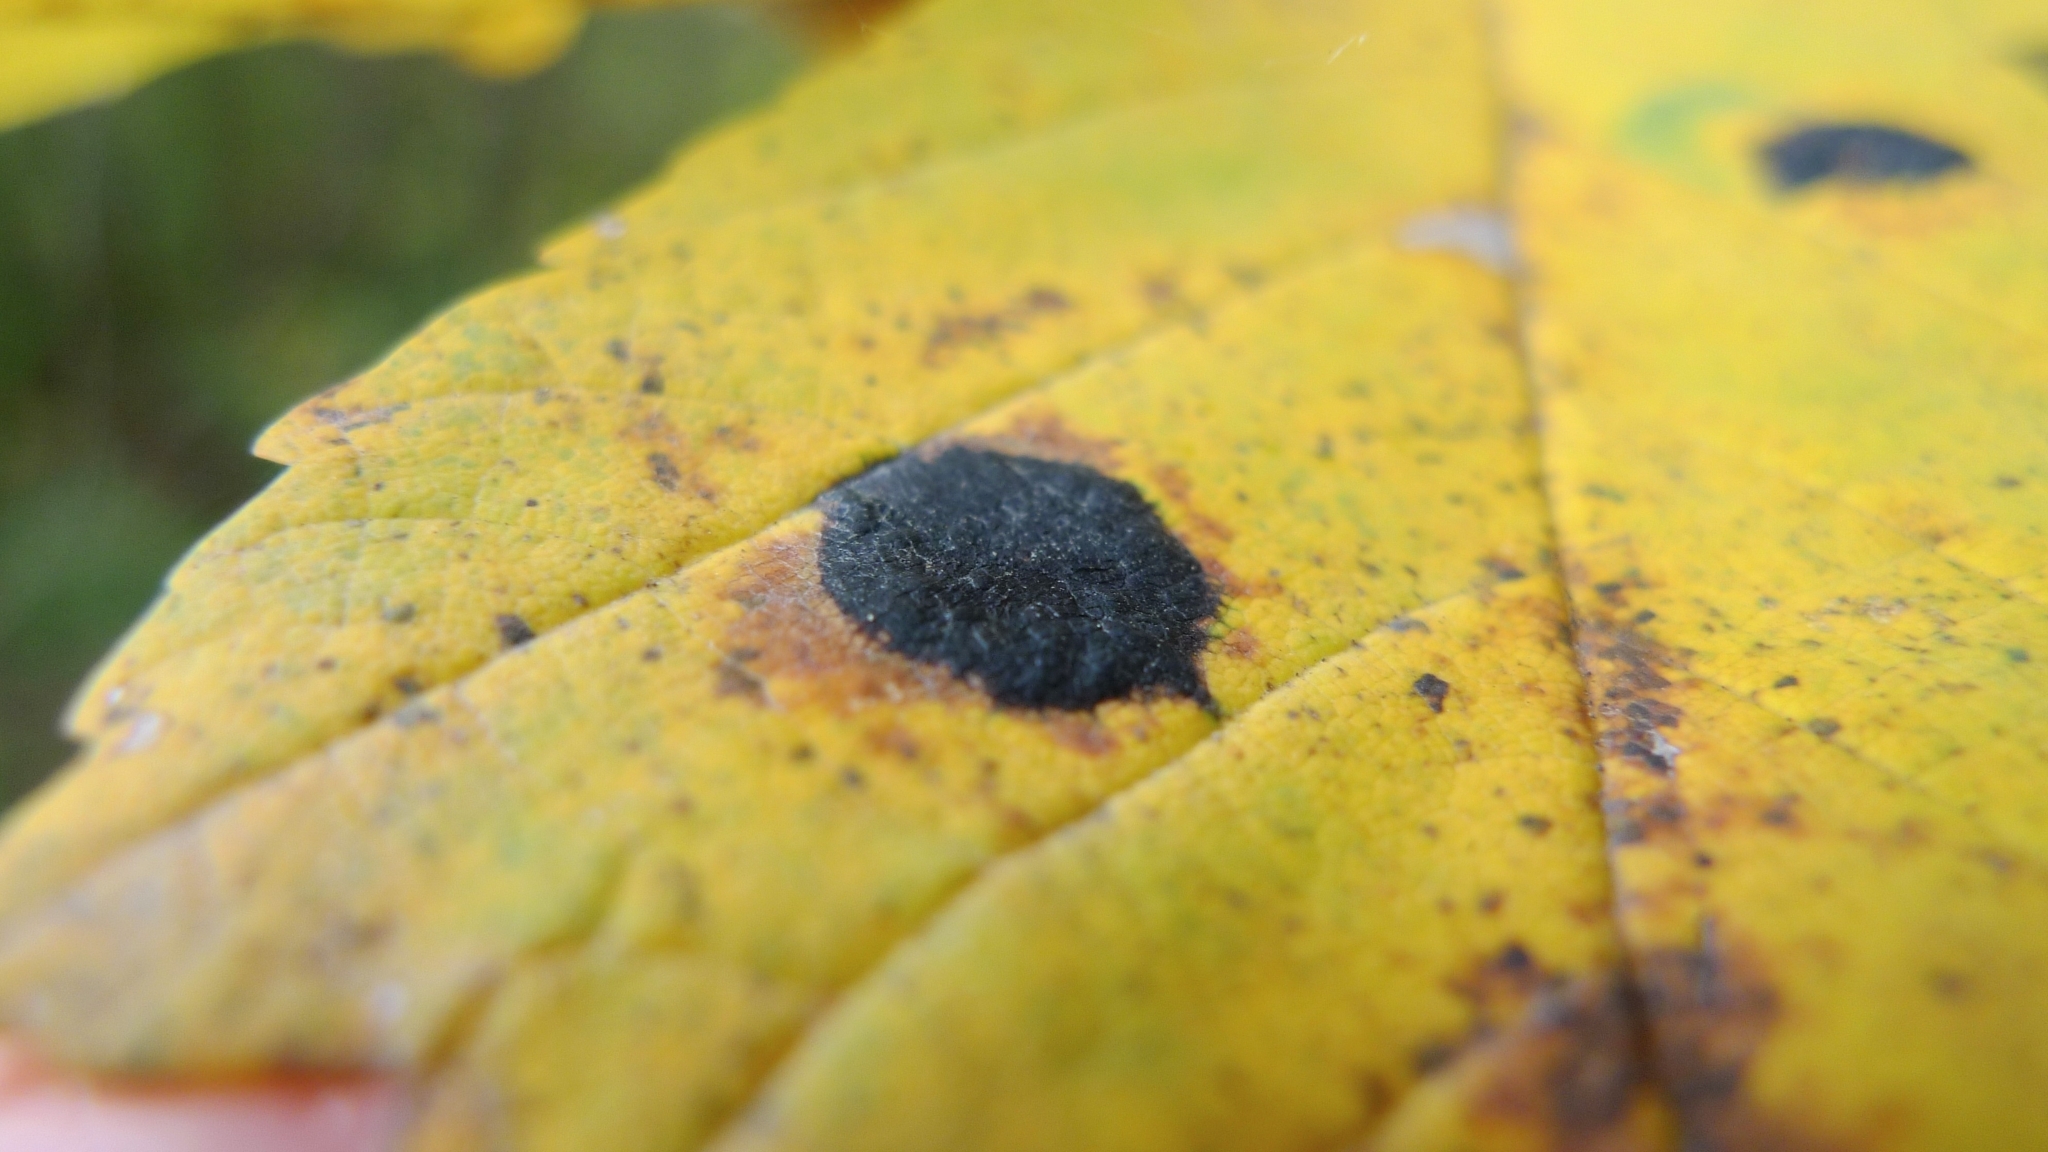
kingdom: Fungi
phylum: Ascomycota
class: Leotiomycetes
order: Rhytismatales
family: Rhytismataceae
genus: Rhytisma
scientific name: Rhytisma acerinum
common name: European tar spot
